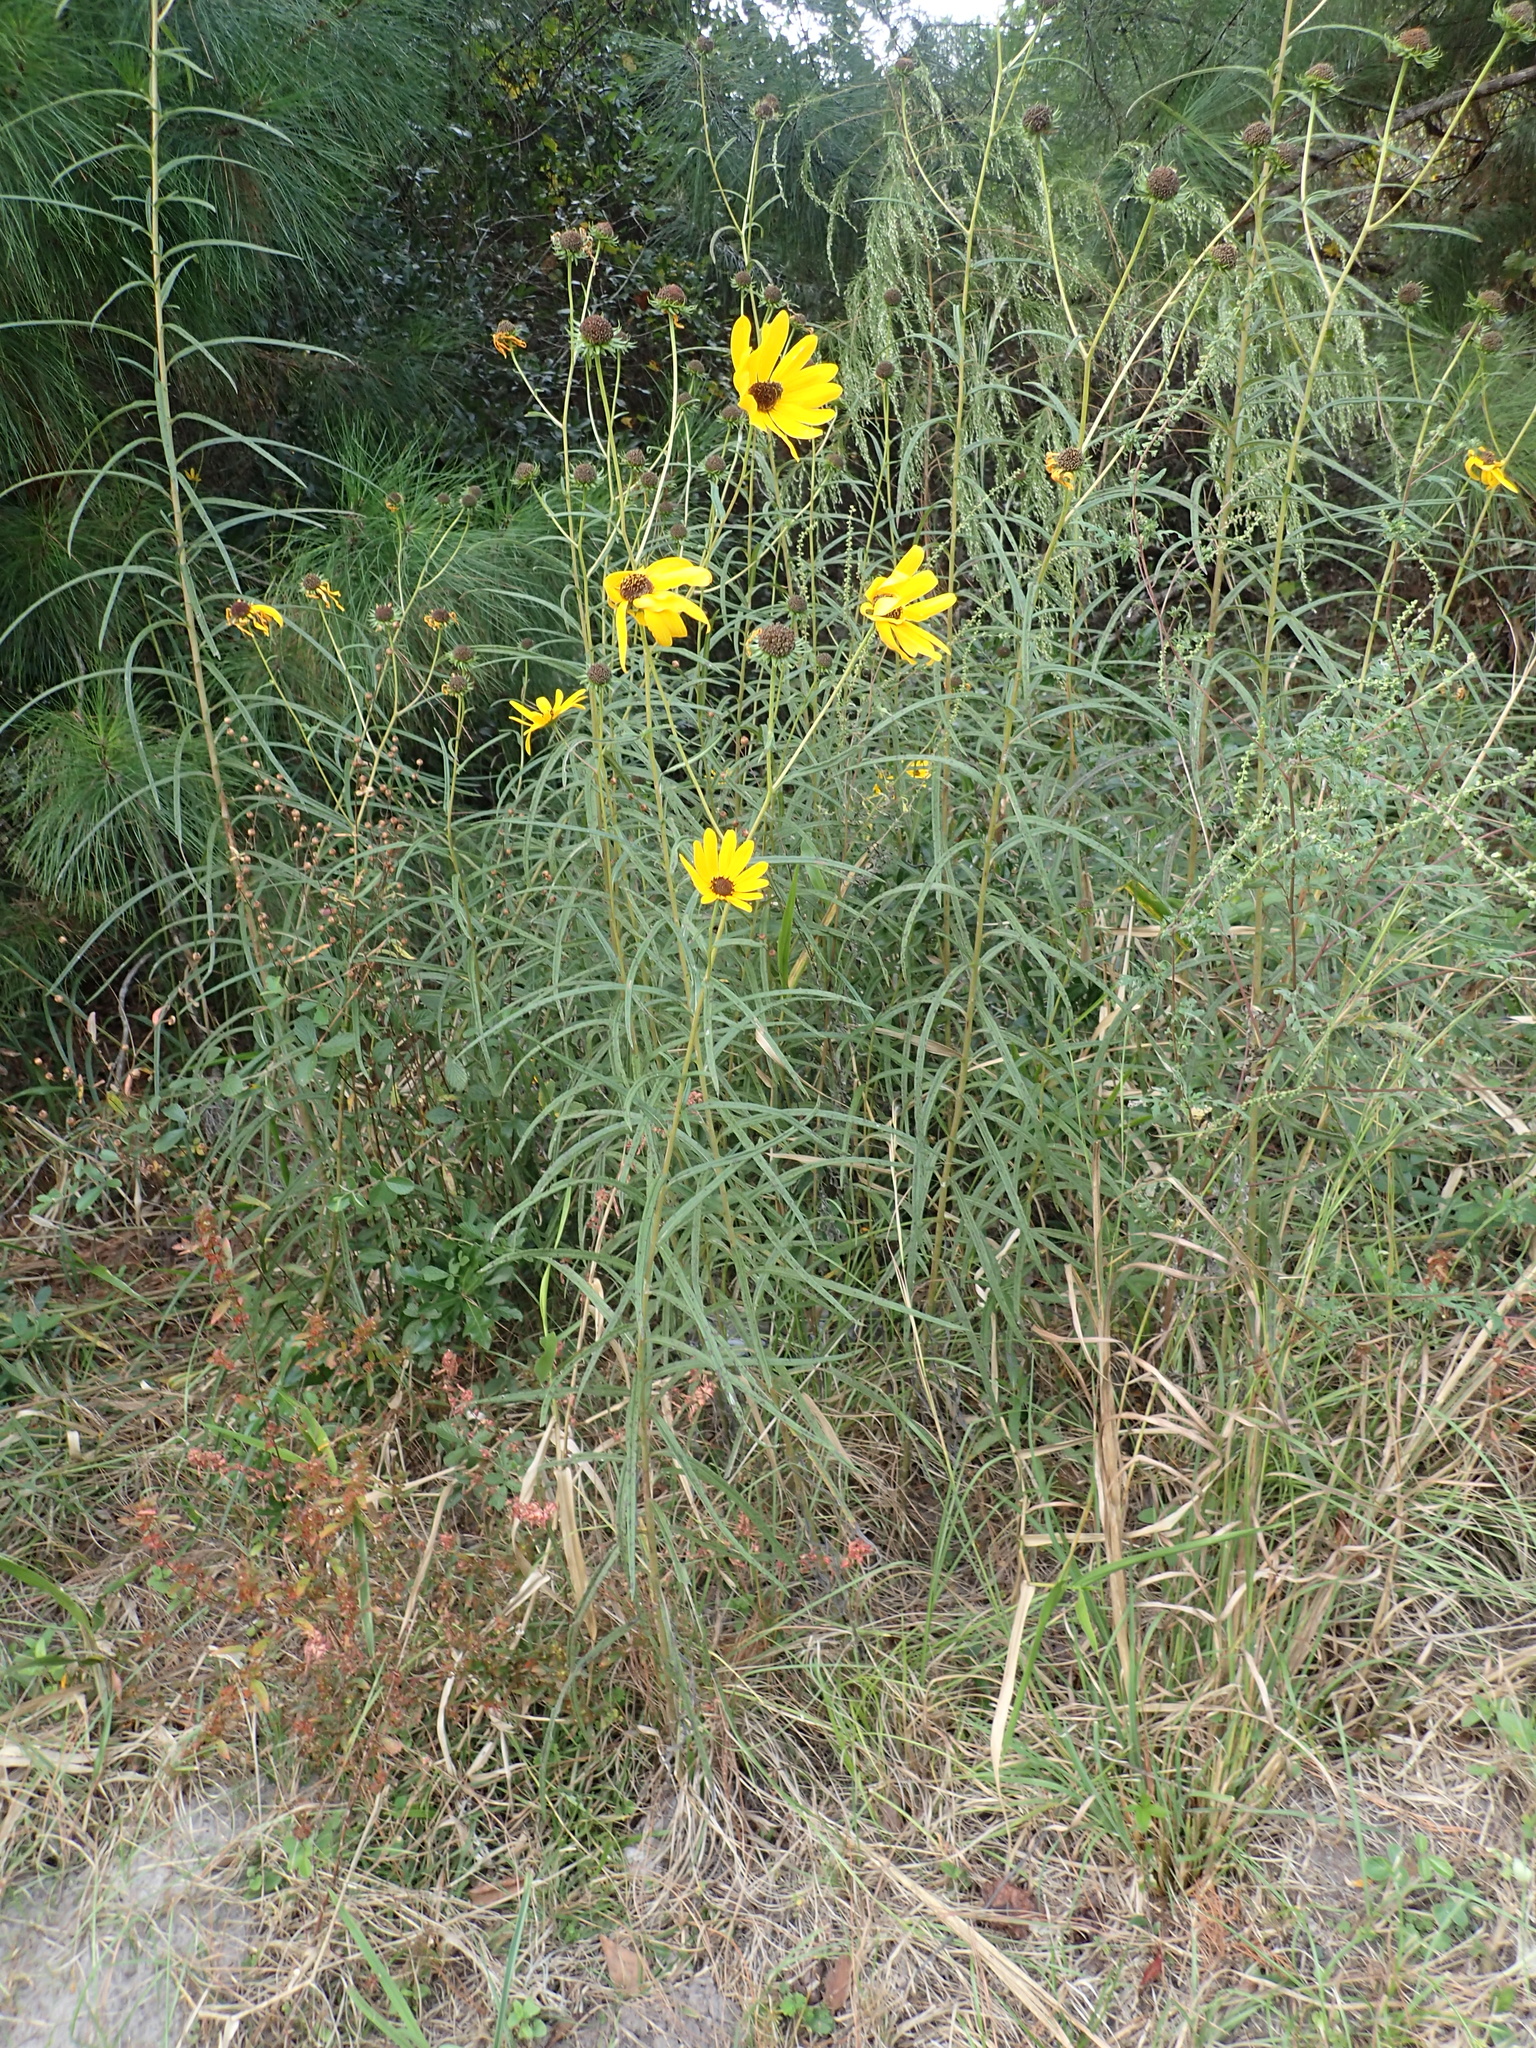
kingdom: Plantae
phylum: Tracheophyta
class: Magnoliopsida
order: Asterales
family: Asteraceae
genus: Helianthus
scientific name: Helianthus angustifolius
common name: Swamp sunflower
